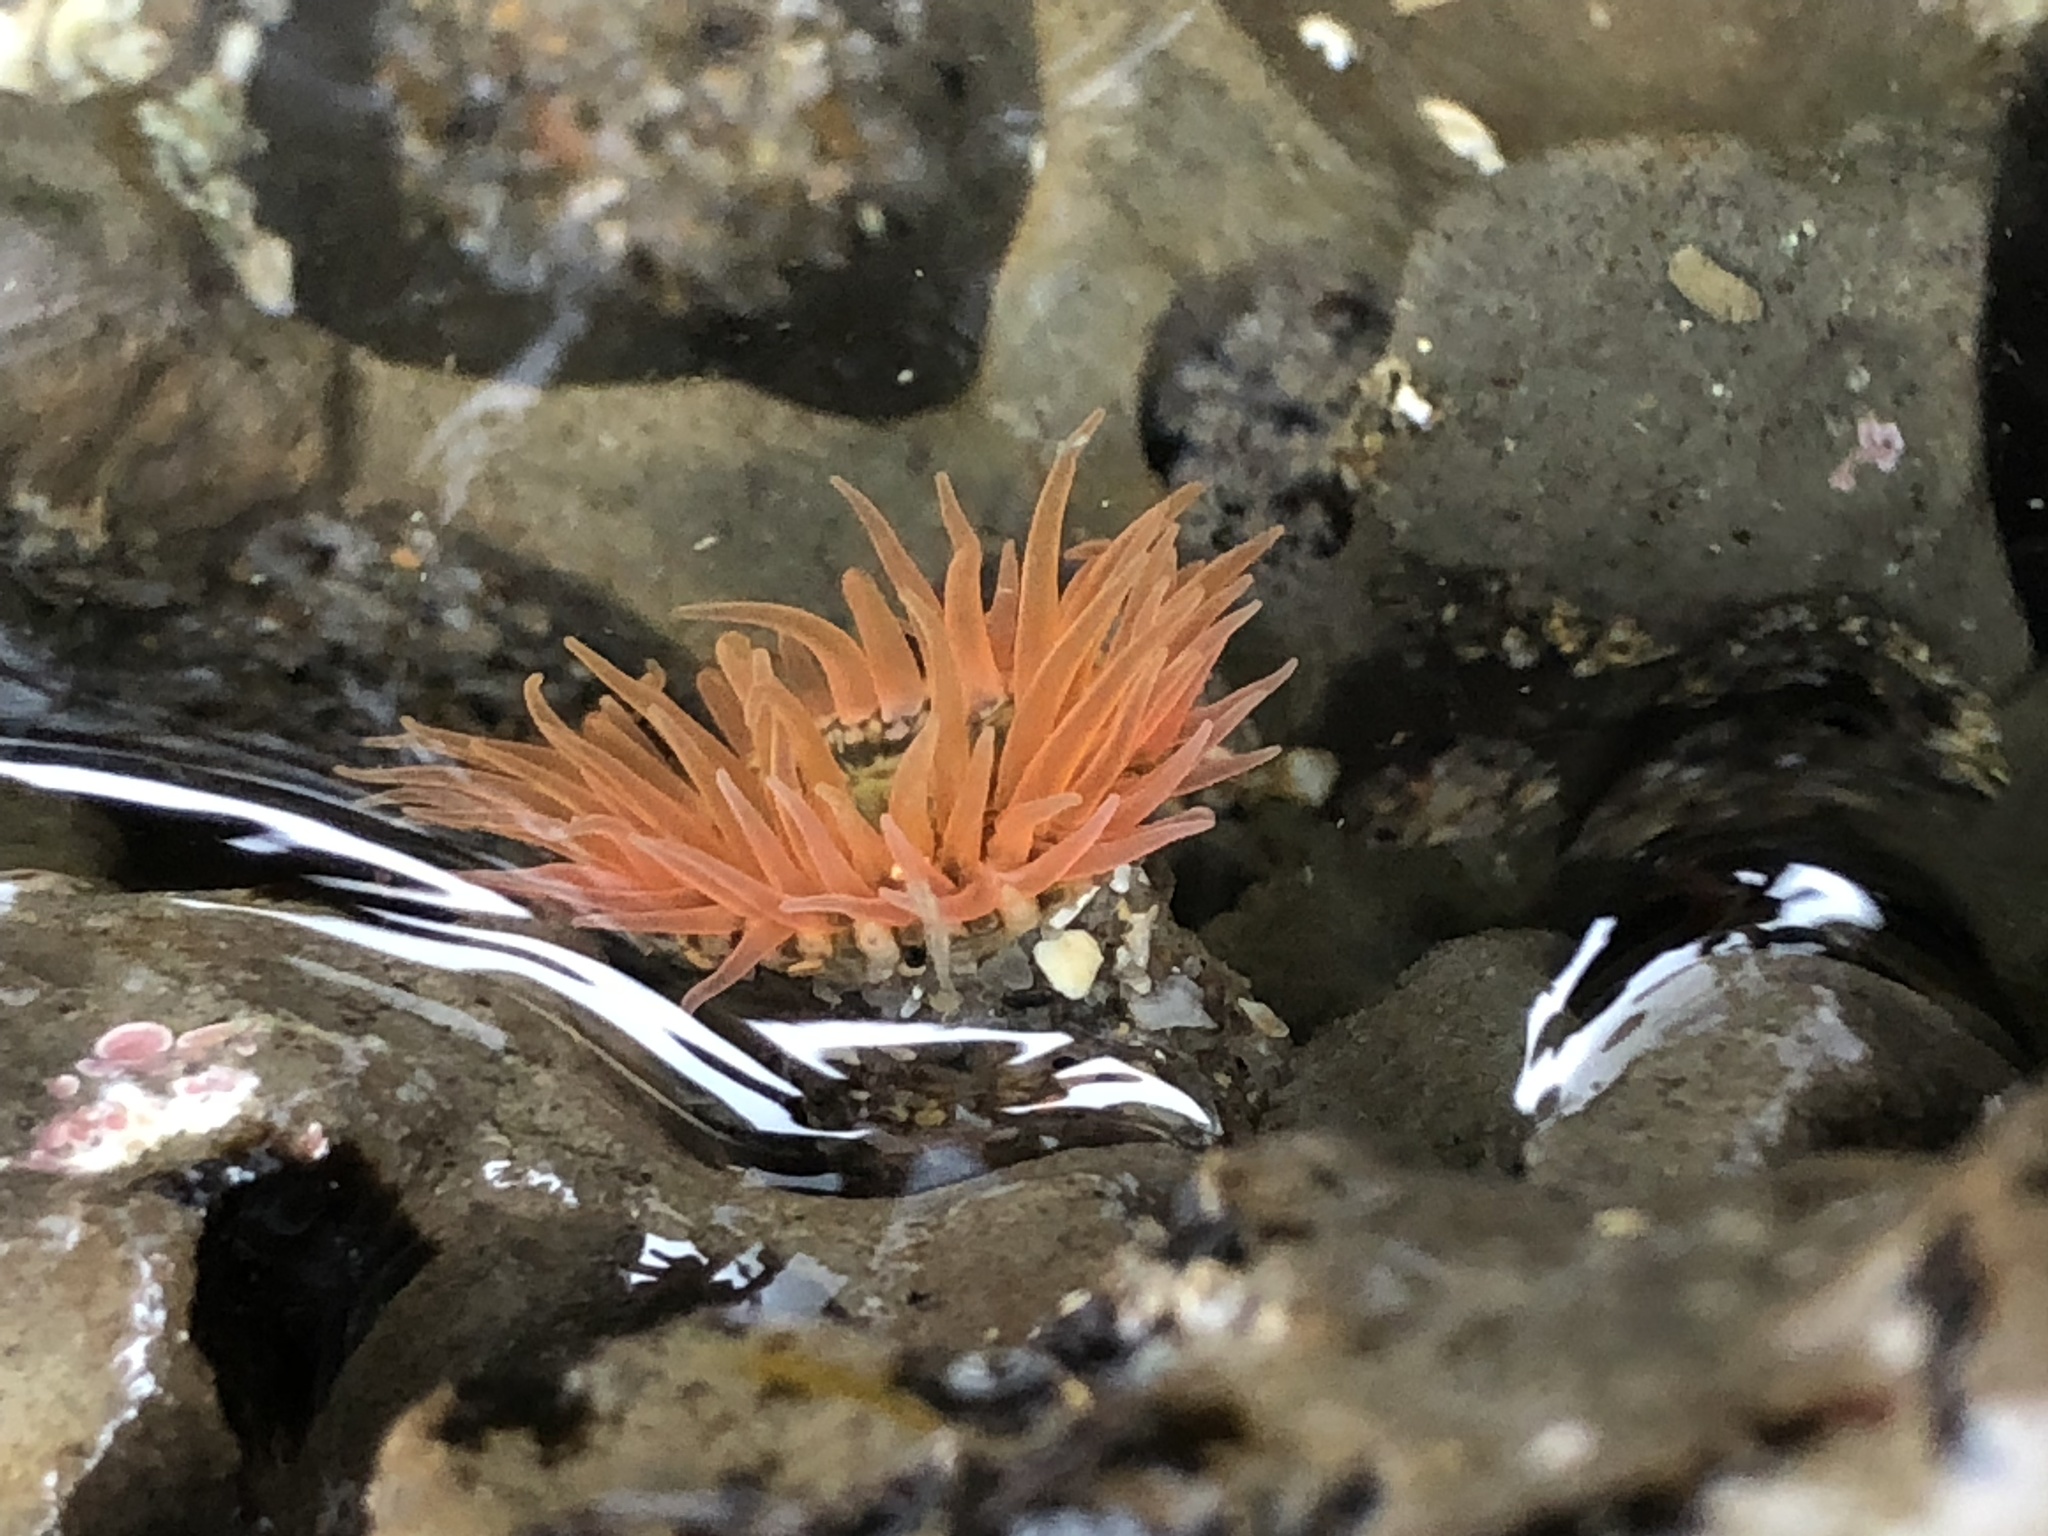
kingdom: Animalia
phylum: Cnidaria
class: Anthozoa
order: Actiniaria
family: Actiniidae
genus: Anthopleura
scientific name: Anthopleura artemisia
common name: Buried sea anemone
